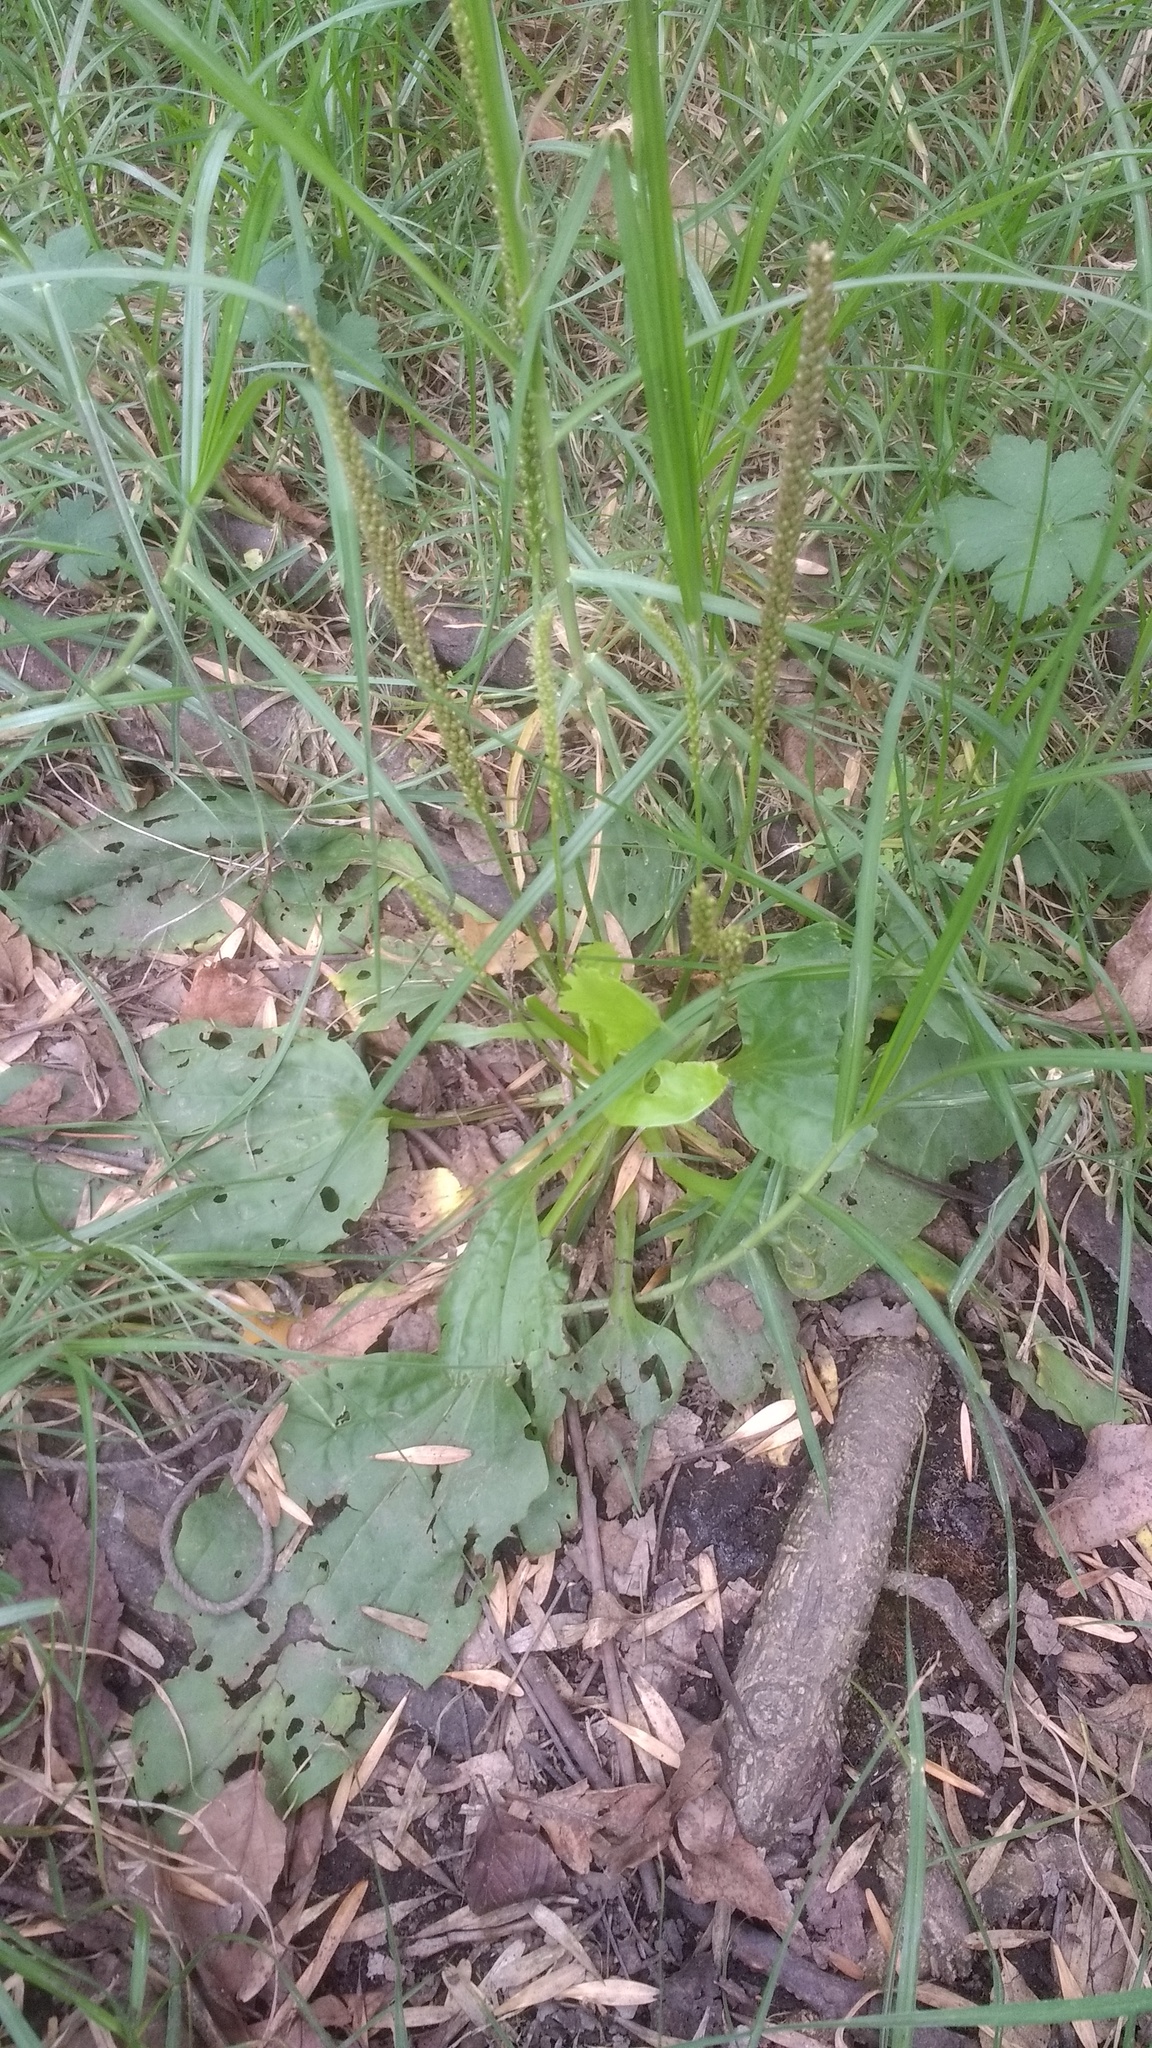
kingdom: Plantae
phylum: Tracheophyta
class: Magnoliopsida
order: Lamiales
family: Plantaginaceae
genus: Plantago
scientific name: Plantago major
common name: Common plantain
